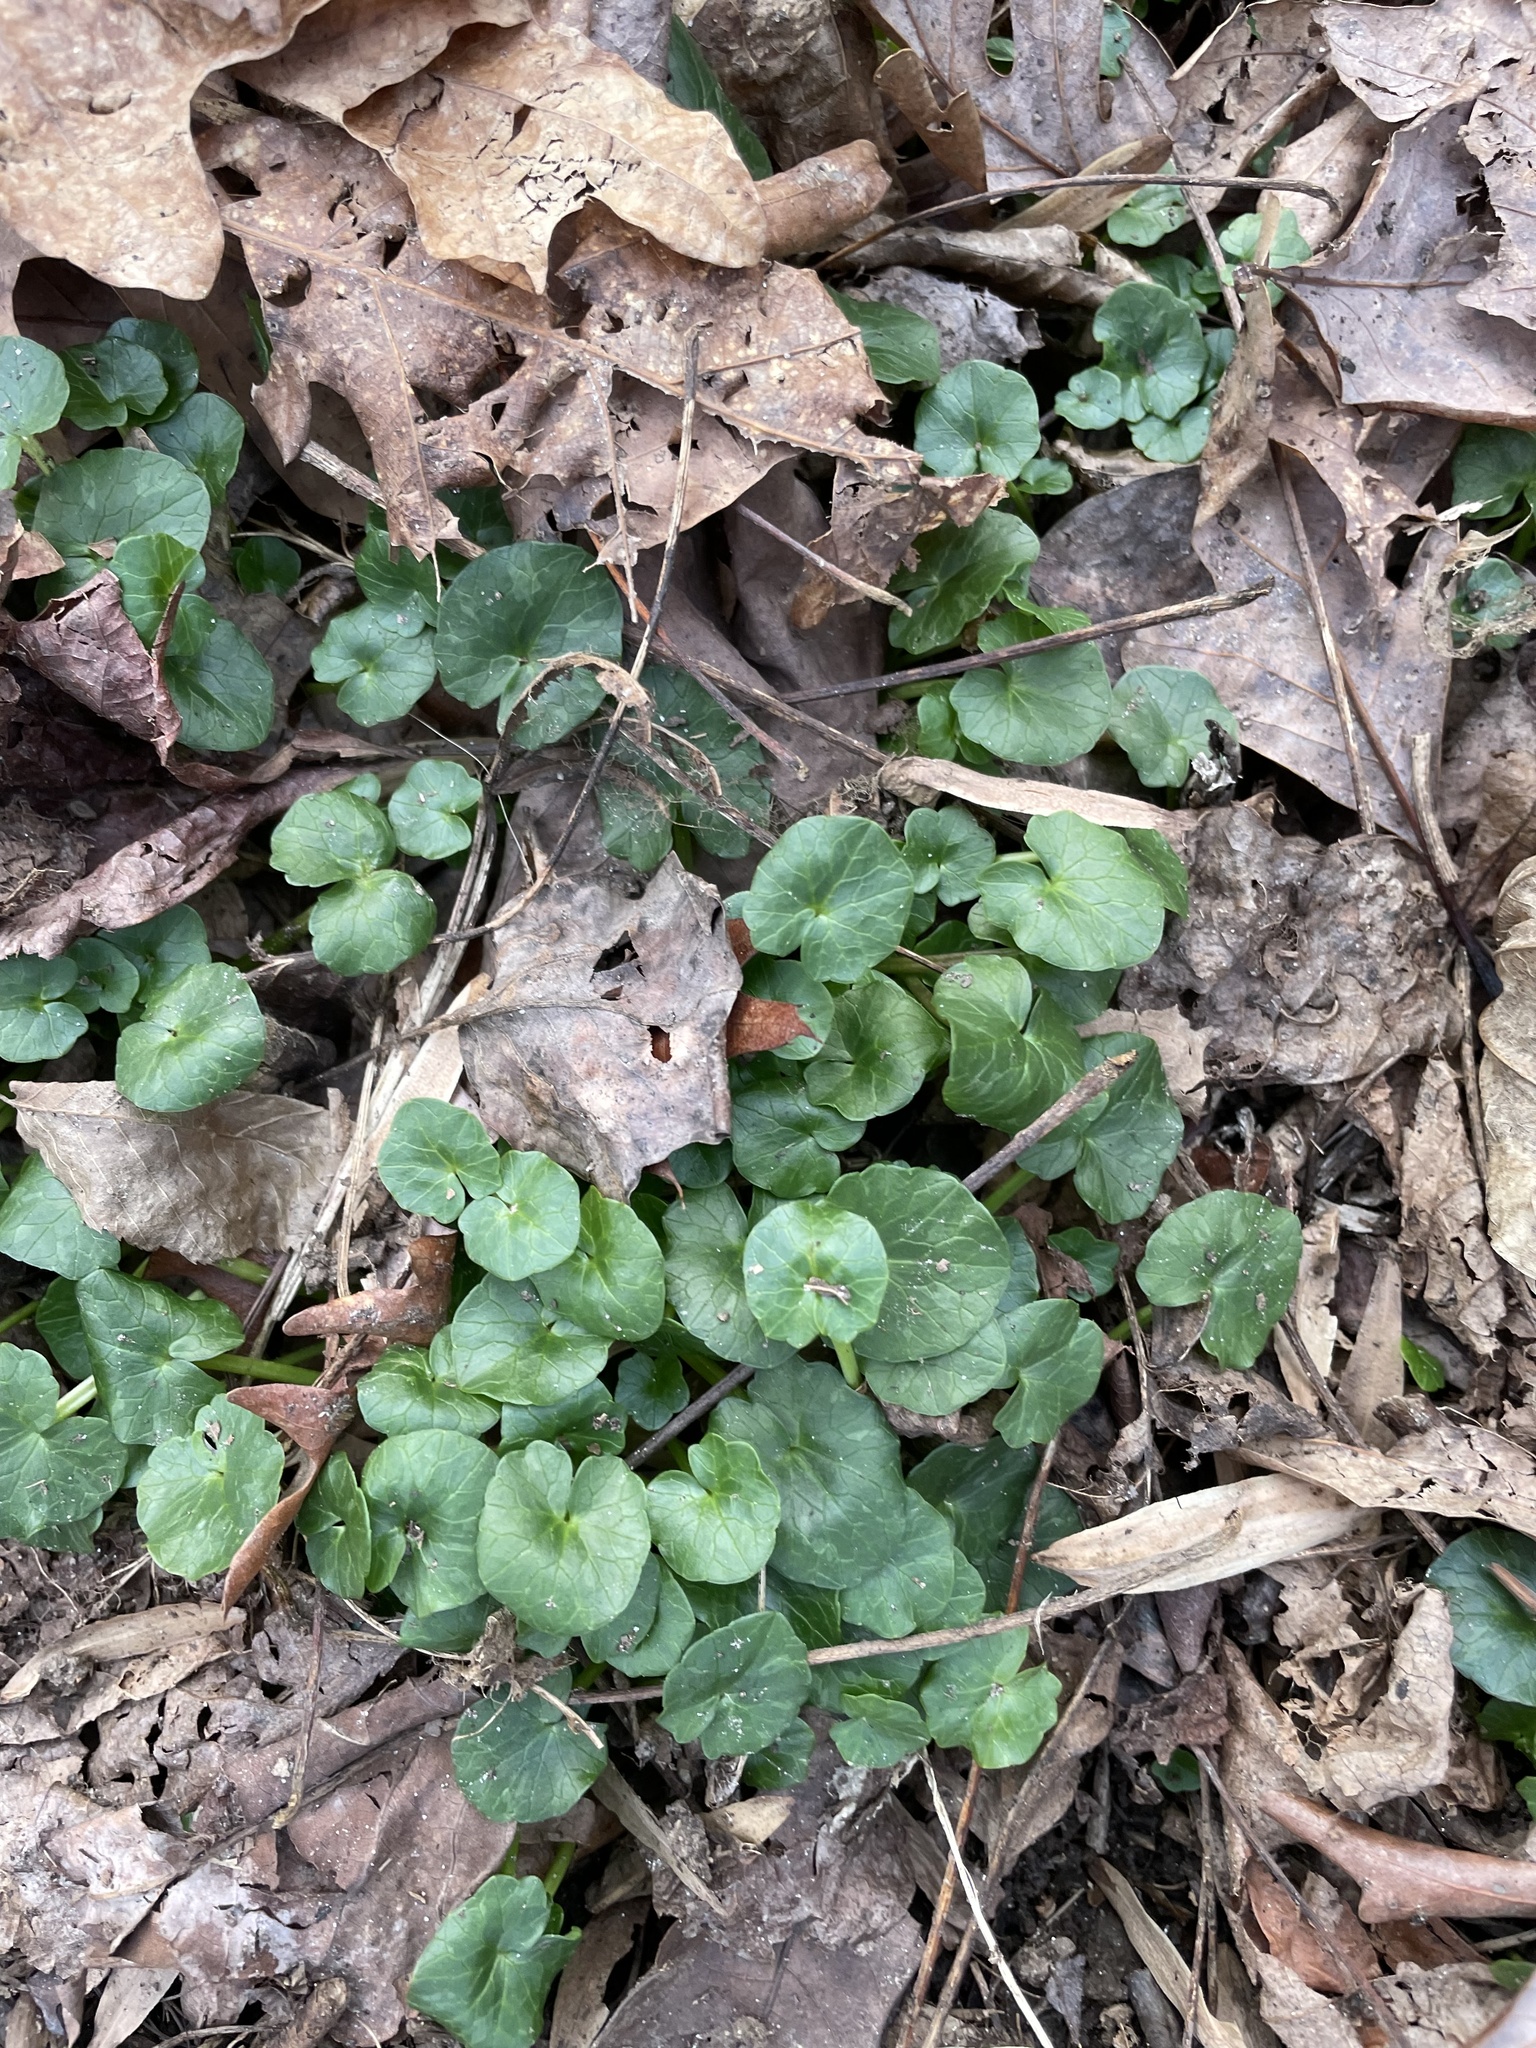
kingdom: Plantae
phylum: Tracheophyta
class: Magnoliopsida
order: Ranunculales
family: Ranunculaceae
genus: Ficaria
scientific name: Ficaria verna
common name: Lesser celandine
